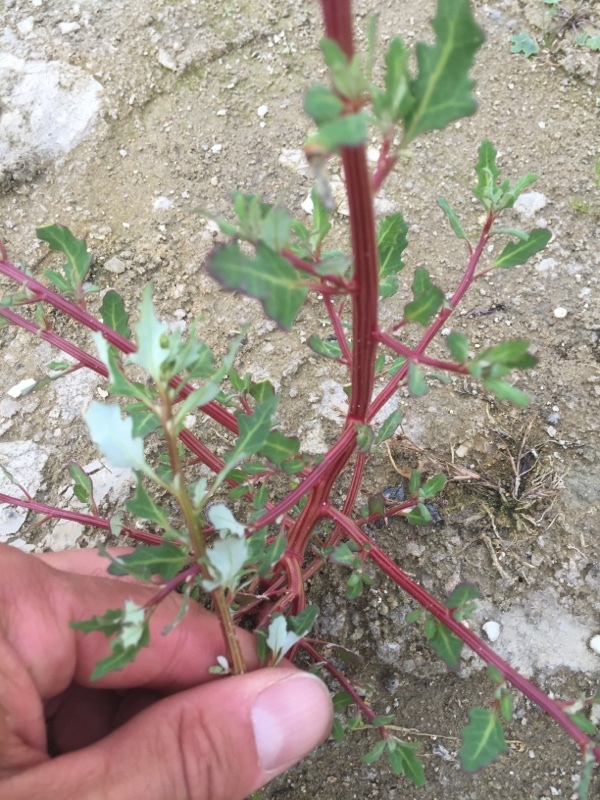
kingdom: Plantae
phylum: Tracheophyta
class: Magnoliopsida
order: Caryophyllales
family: Amaranthaceae
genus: Oxybasis
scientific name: Oxybasis glauca
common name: Glaucous goosefoot
